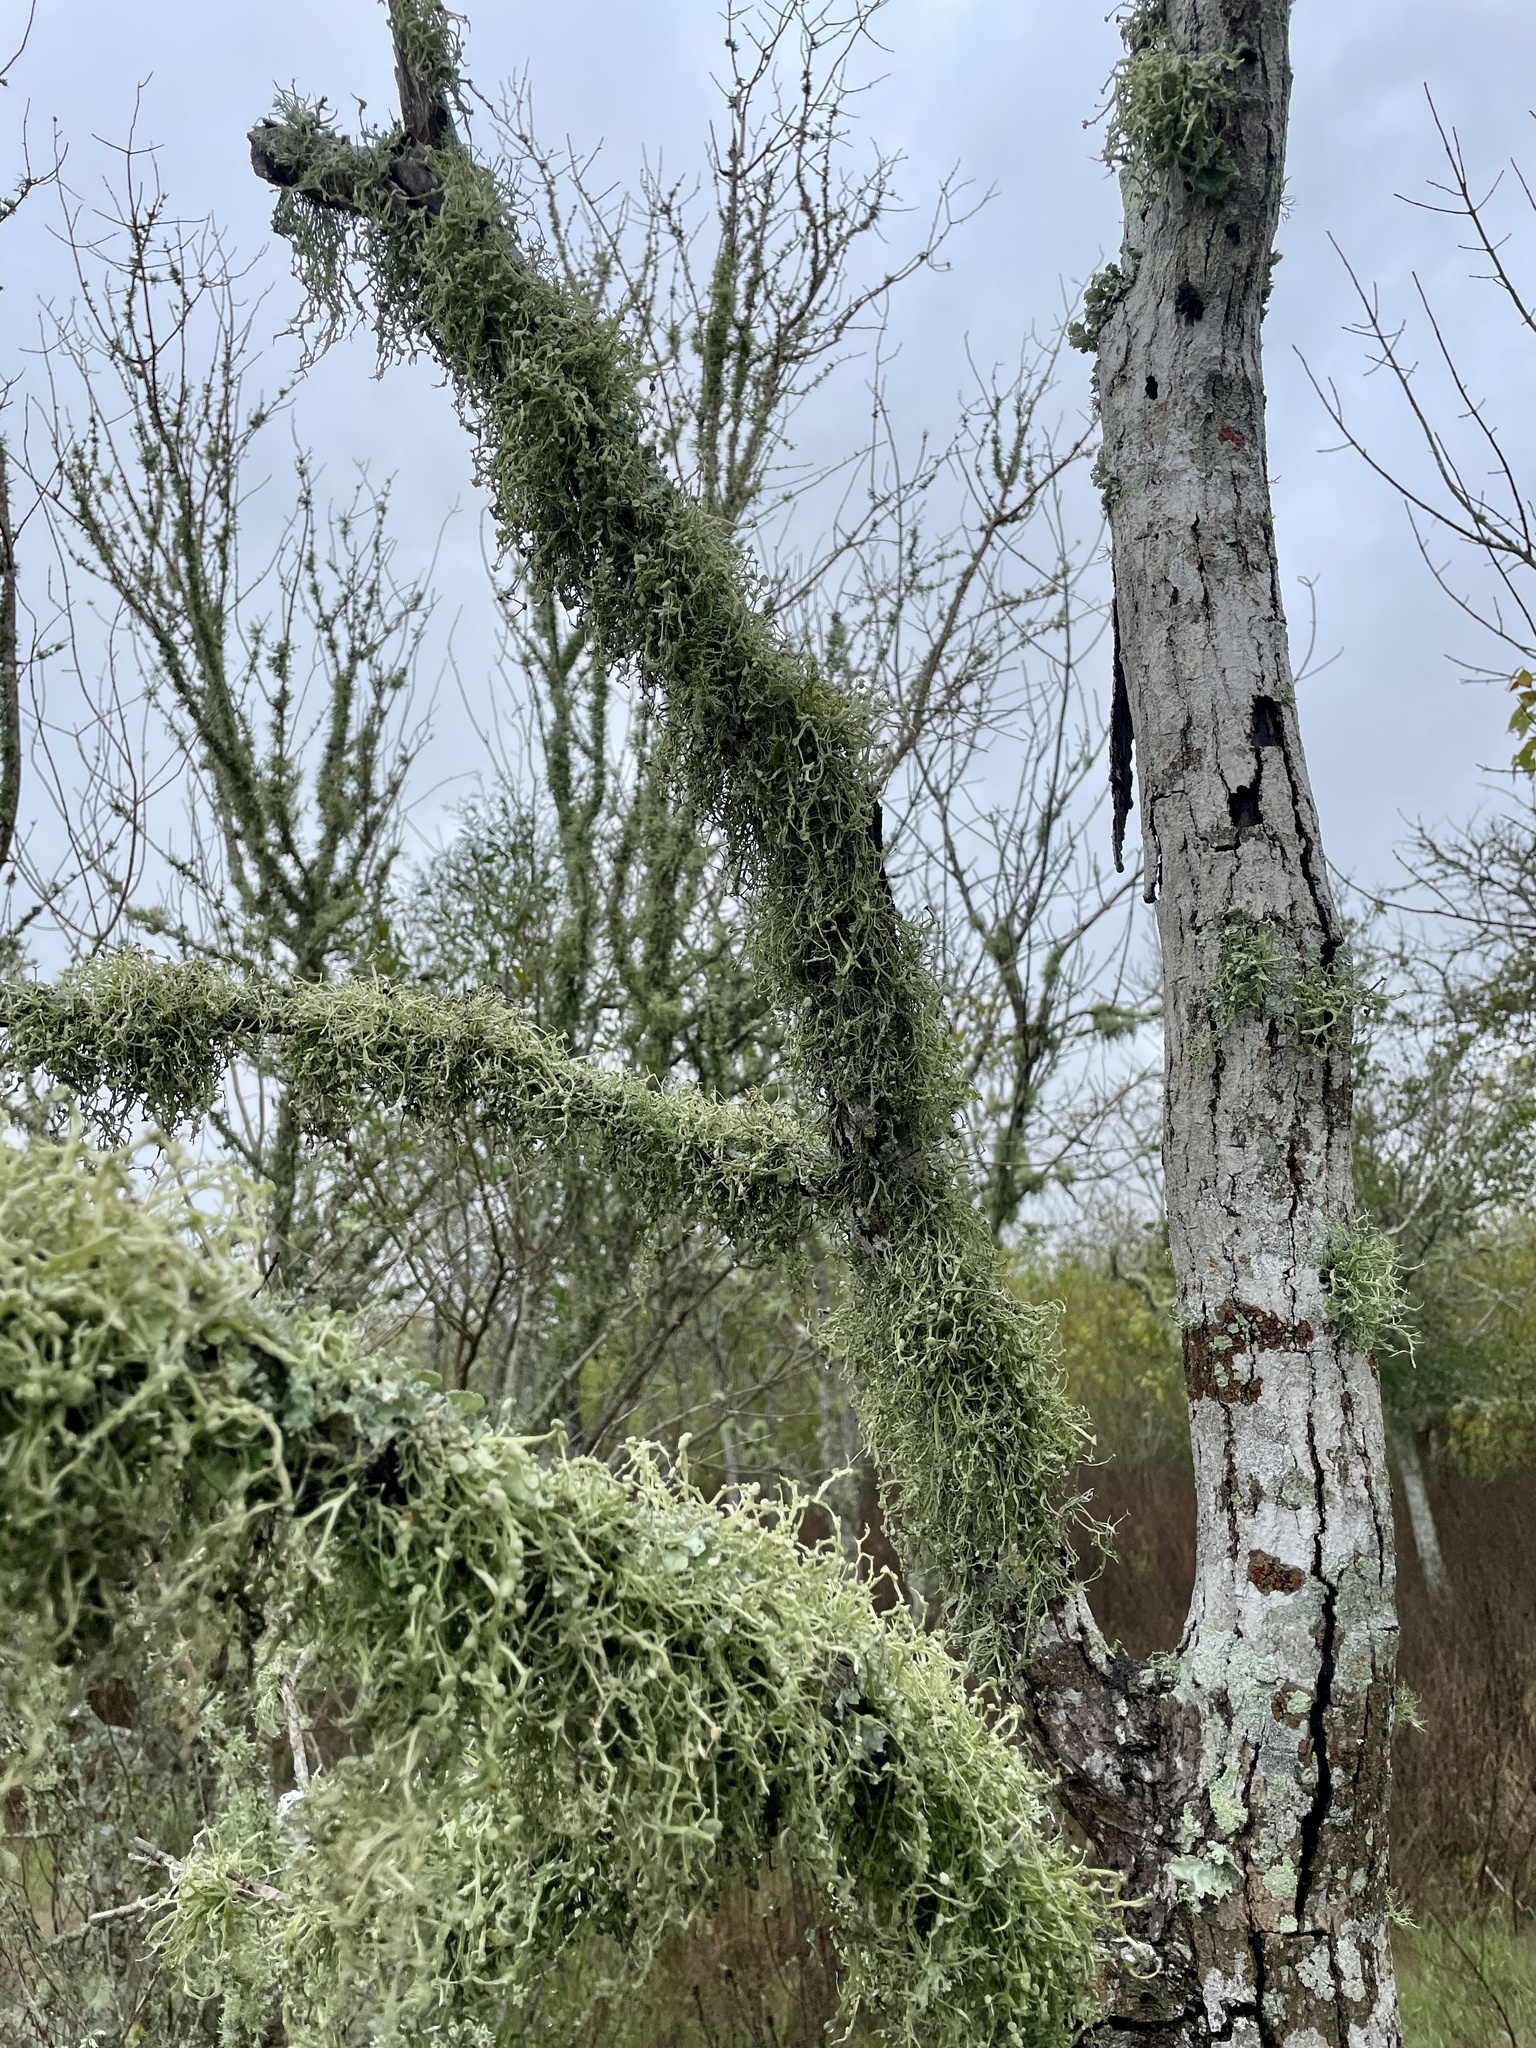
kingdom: Fungi
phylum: Ascomycota
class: Lecanoromycetes
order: Lecanorales
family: Ramalinaceae
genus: Ramalina
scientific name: Ramalina stenospora
